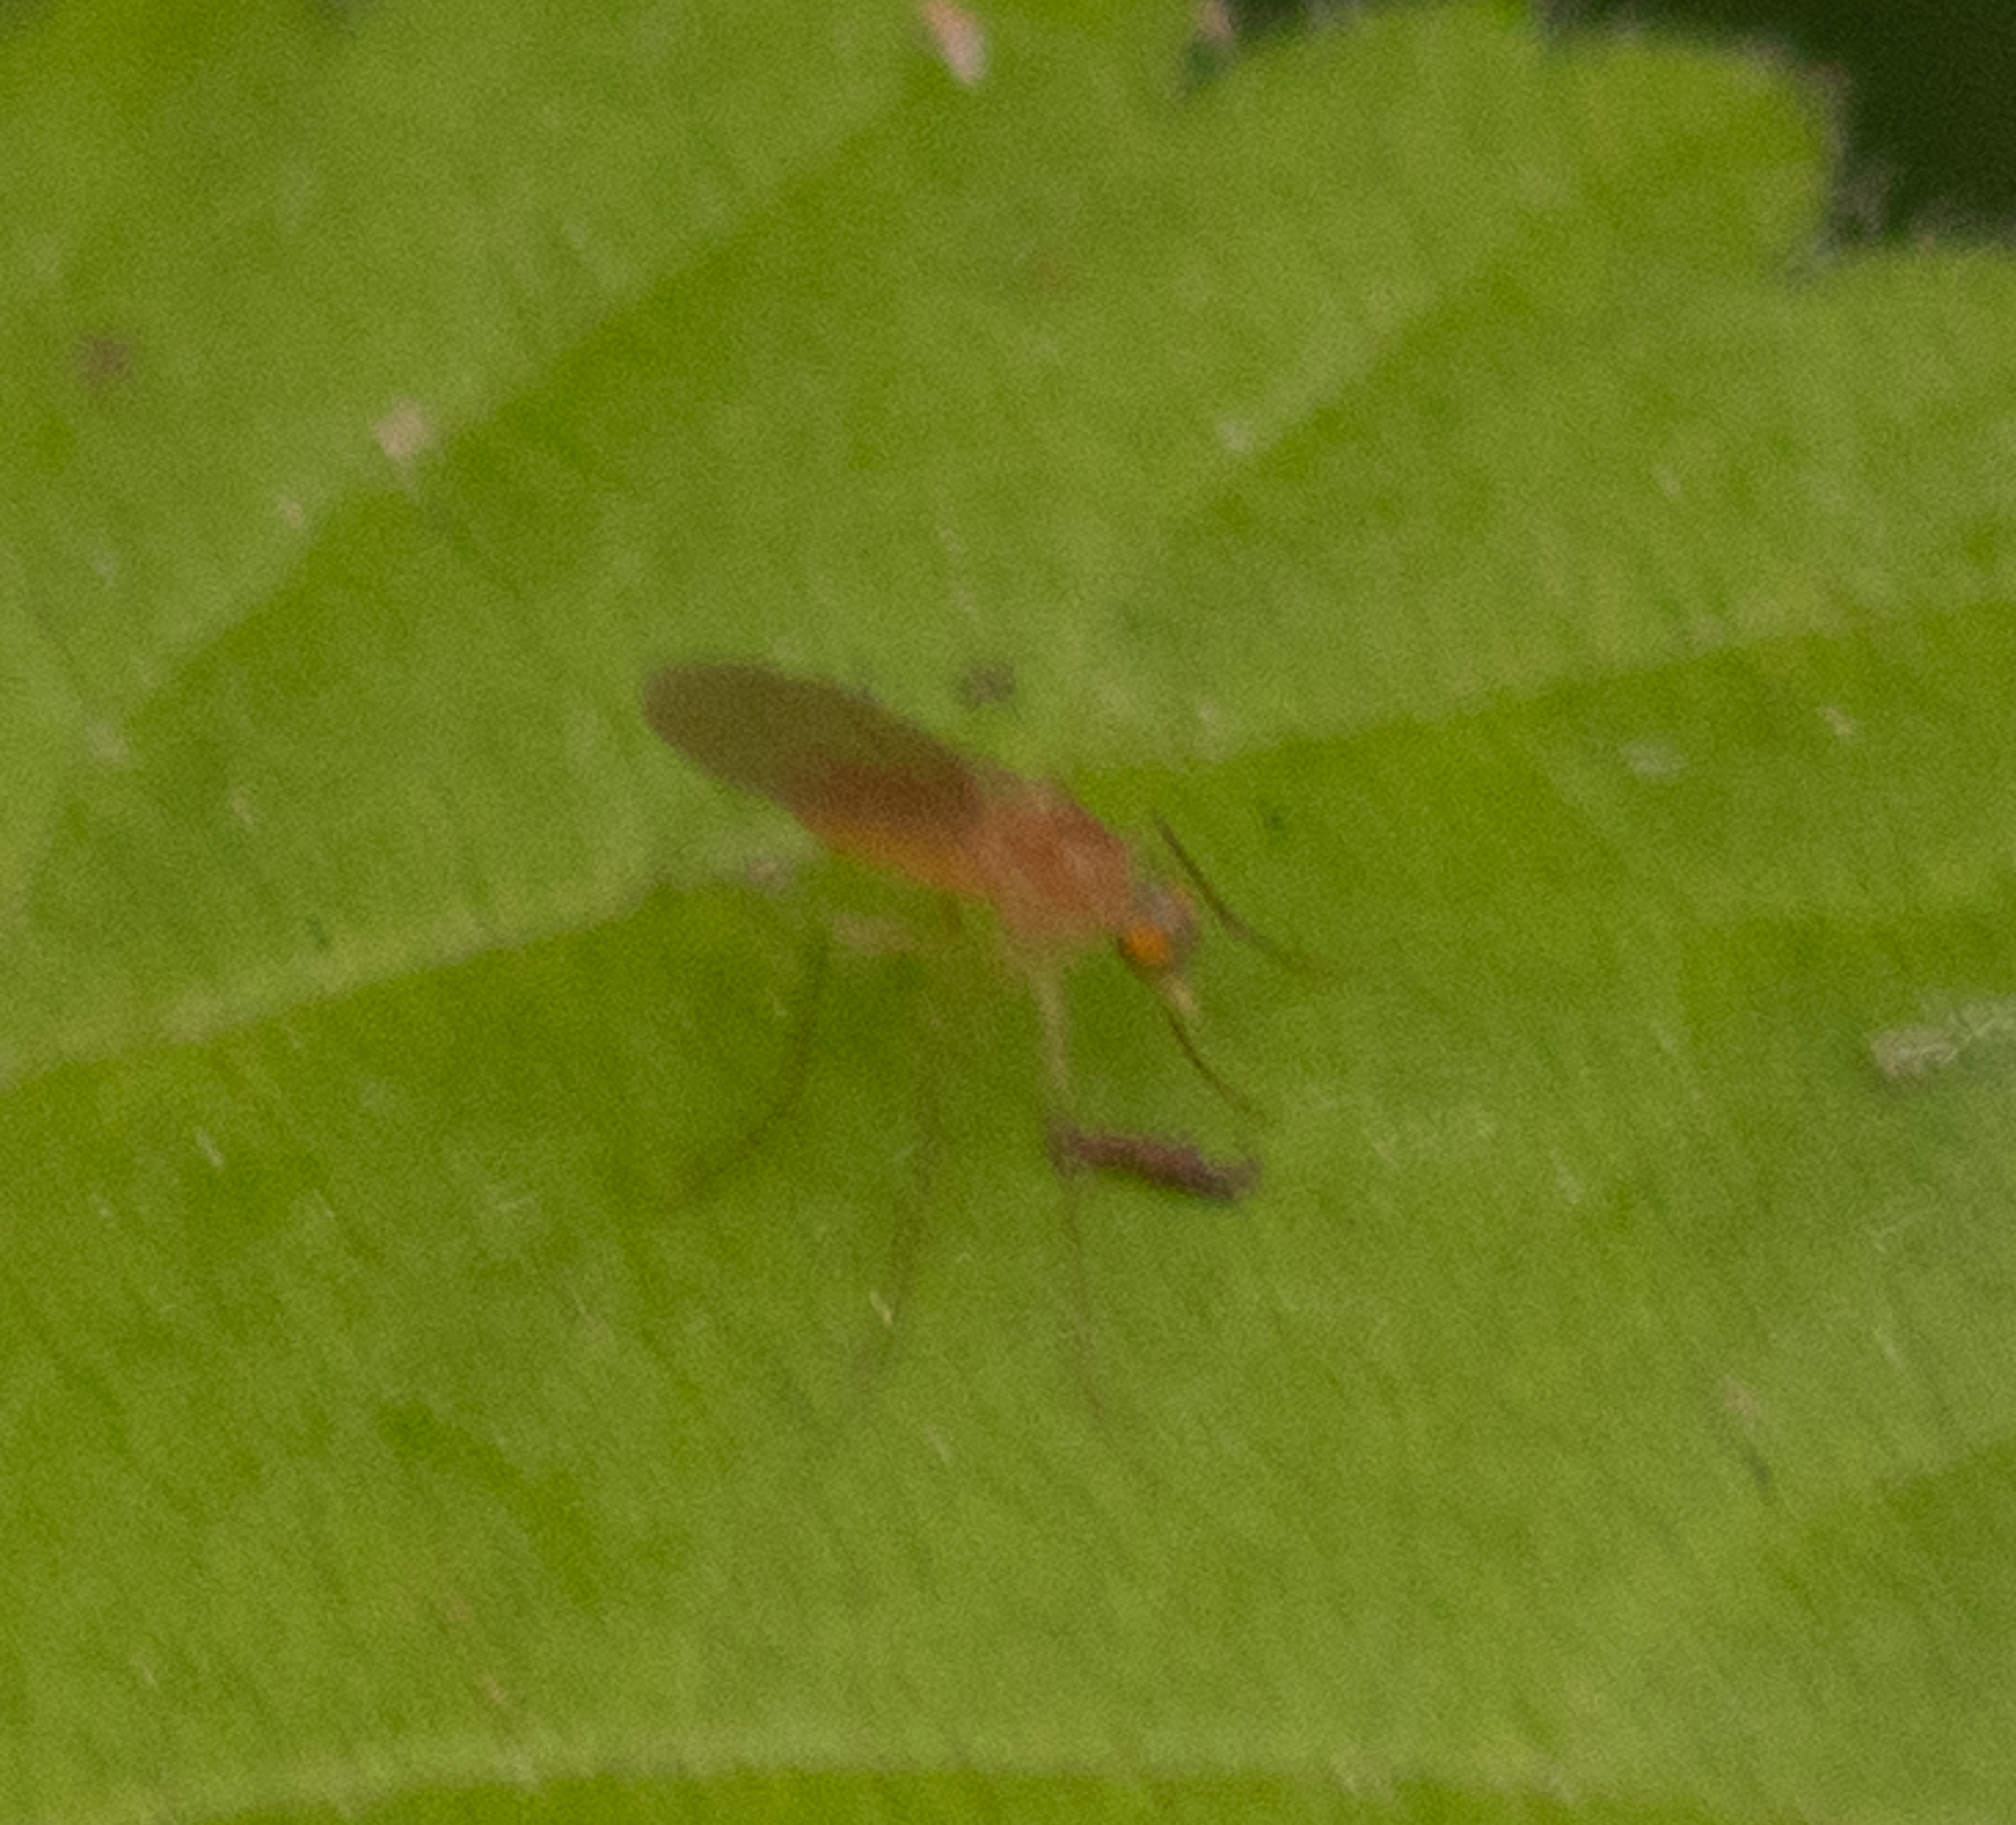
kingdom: Animalia
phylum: Arthropoda
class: Insecta
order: Diptera
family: Dolichopodidae
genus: Xanthochlorus
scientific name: Xanthochlorus helvinus
